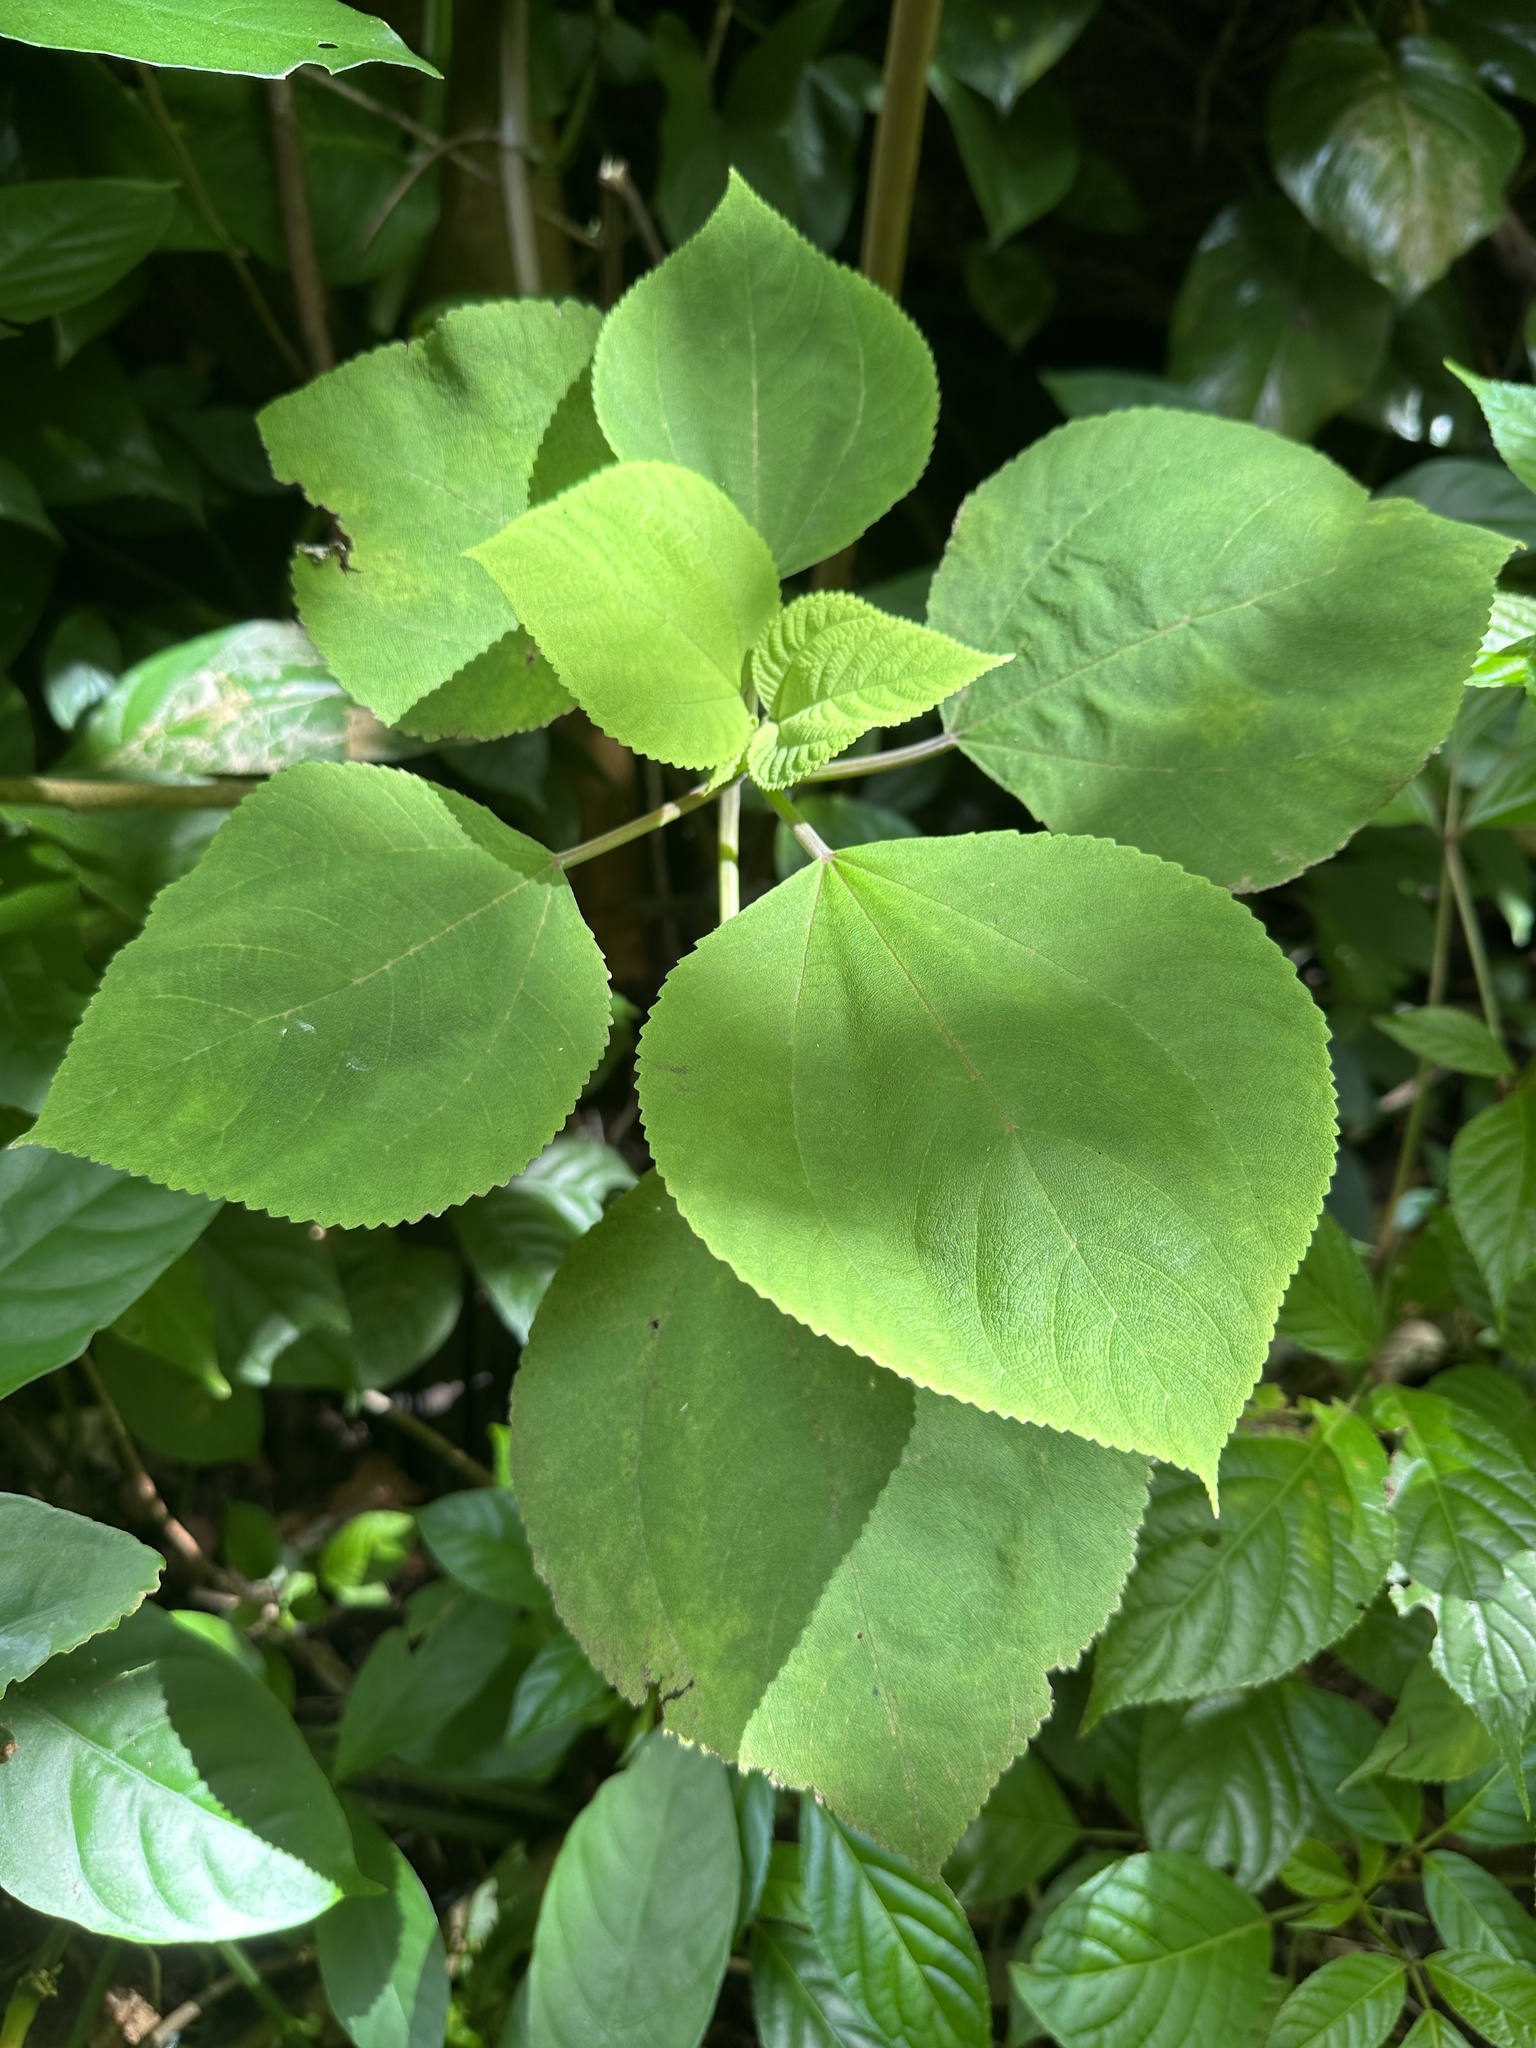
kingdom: Plantae
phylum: Tracheophyta
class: Magnoliopsida
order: Rosales
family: Urticaceae
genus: Pipturus
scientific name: Pipturus albidus
